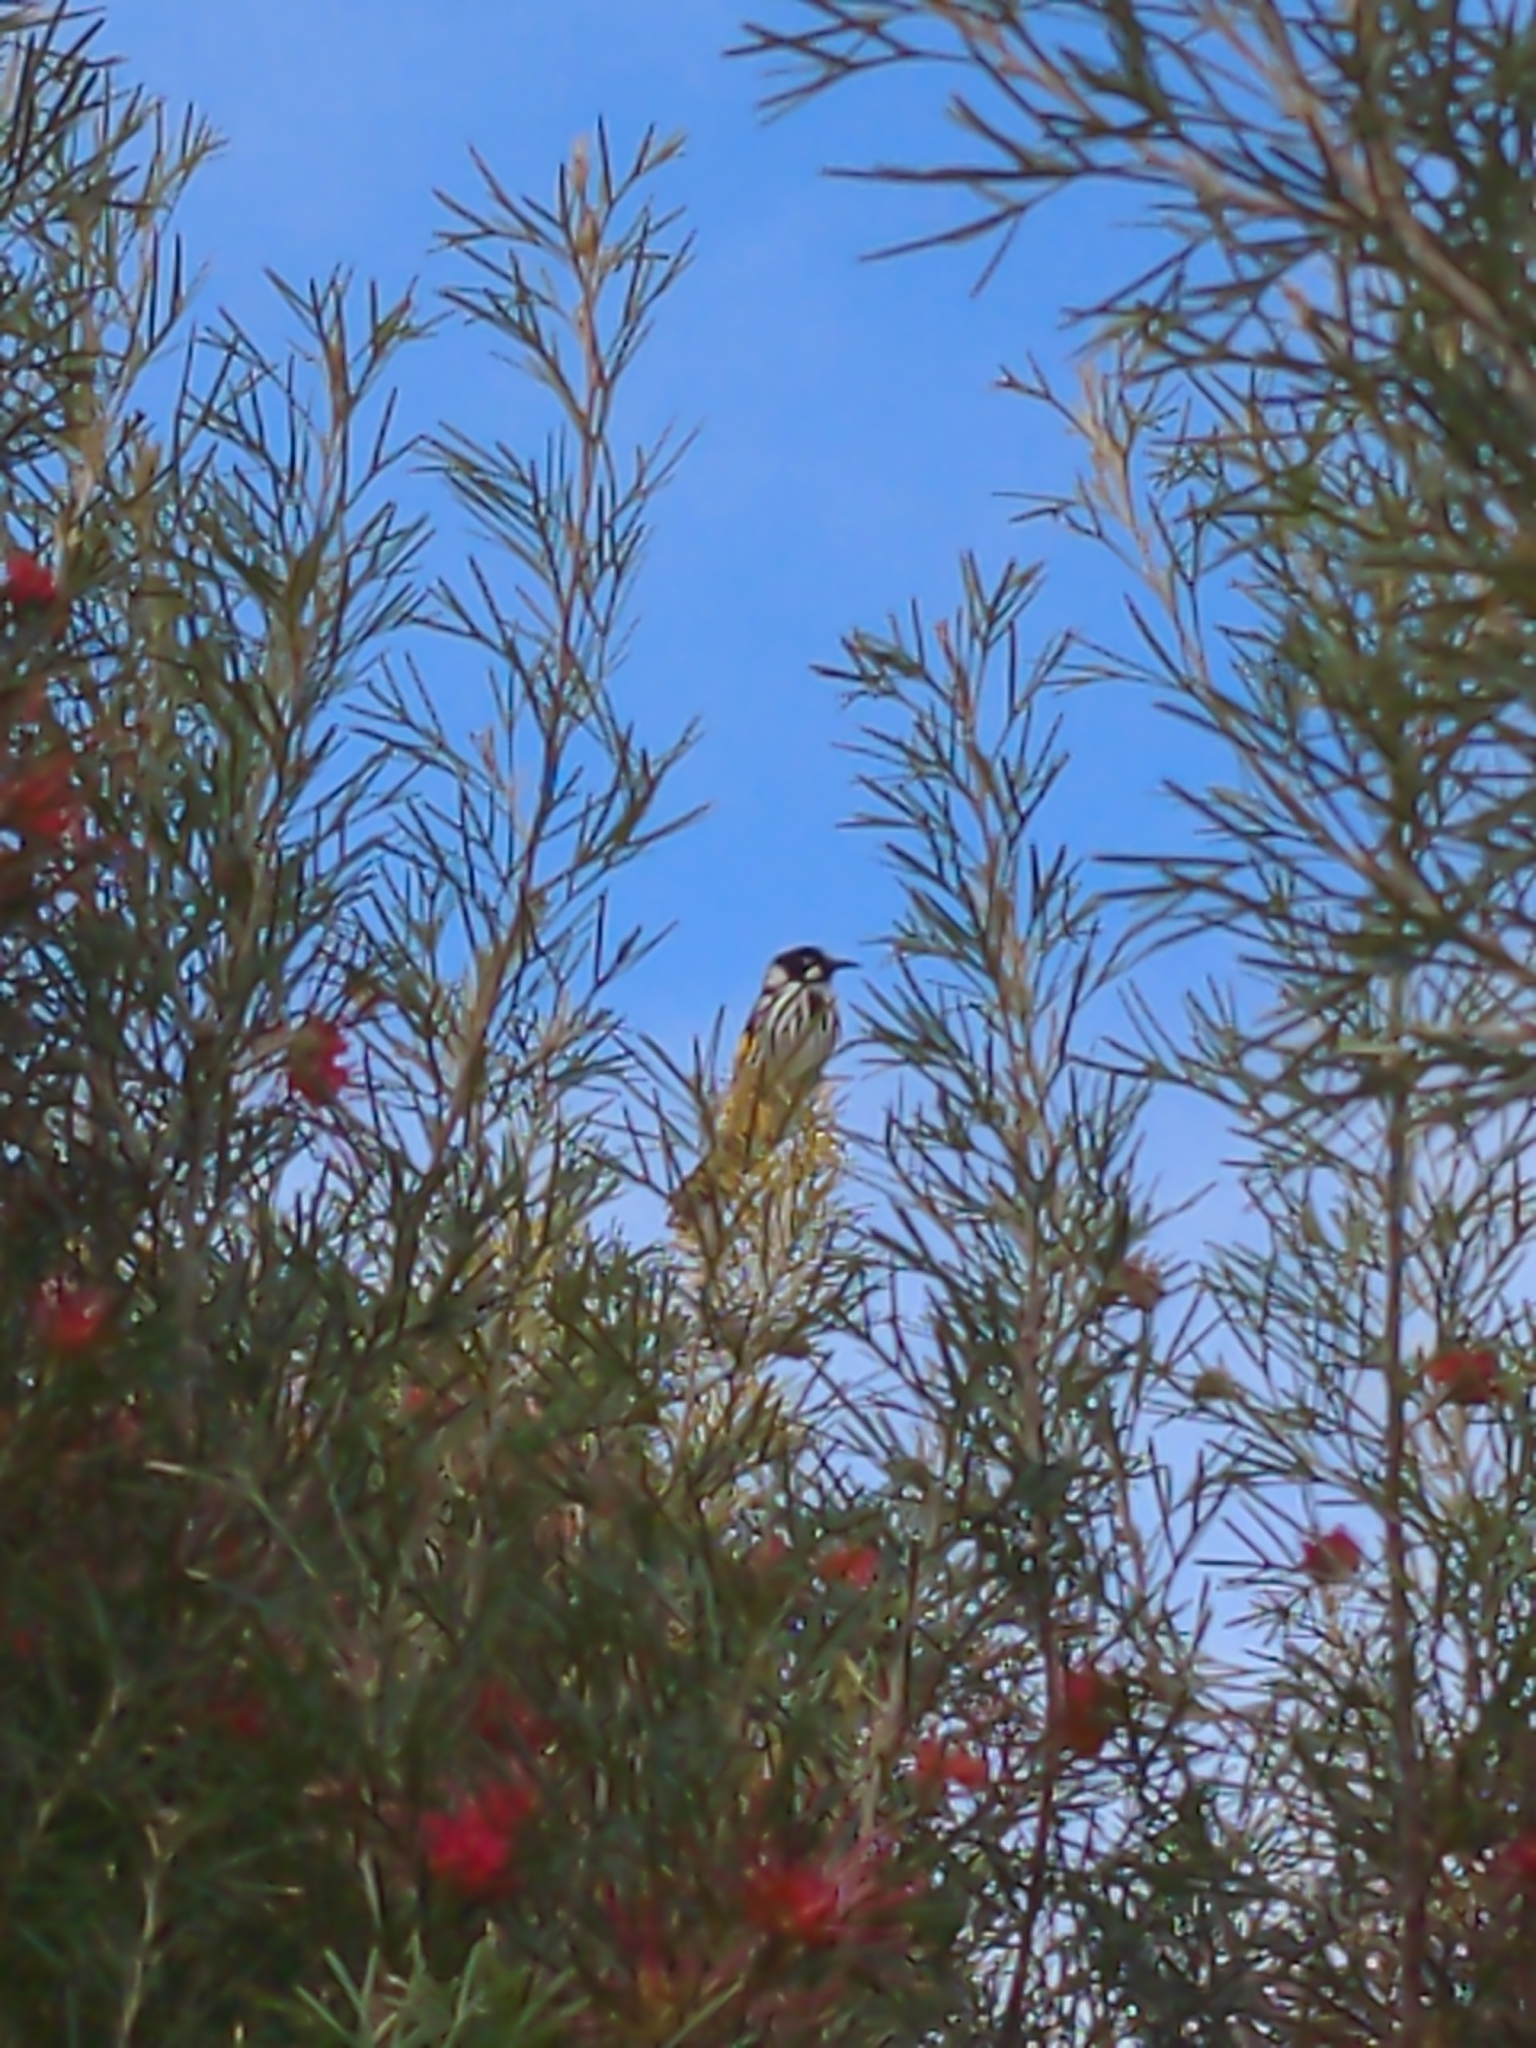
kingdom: Animalia
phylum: Chordata
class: Aves
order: Passeriformes
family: Meliphagidae
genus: Phylidonyris
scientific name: Phylidonyris novaehollandiae
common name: New holland honeyeater
